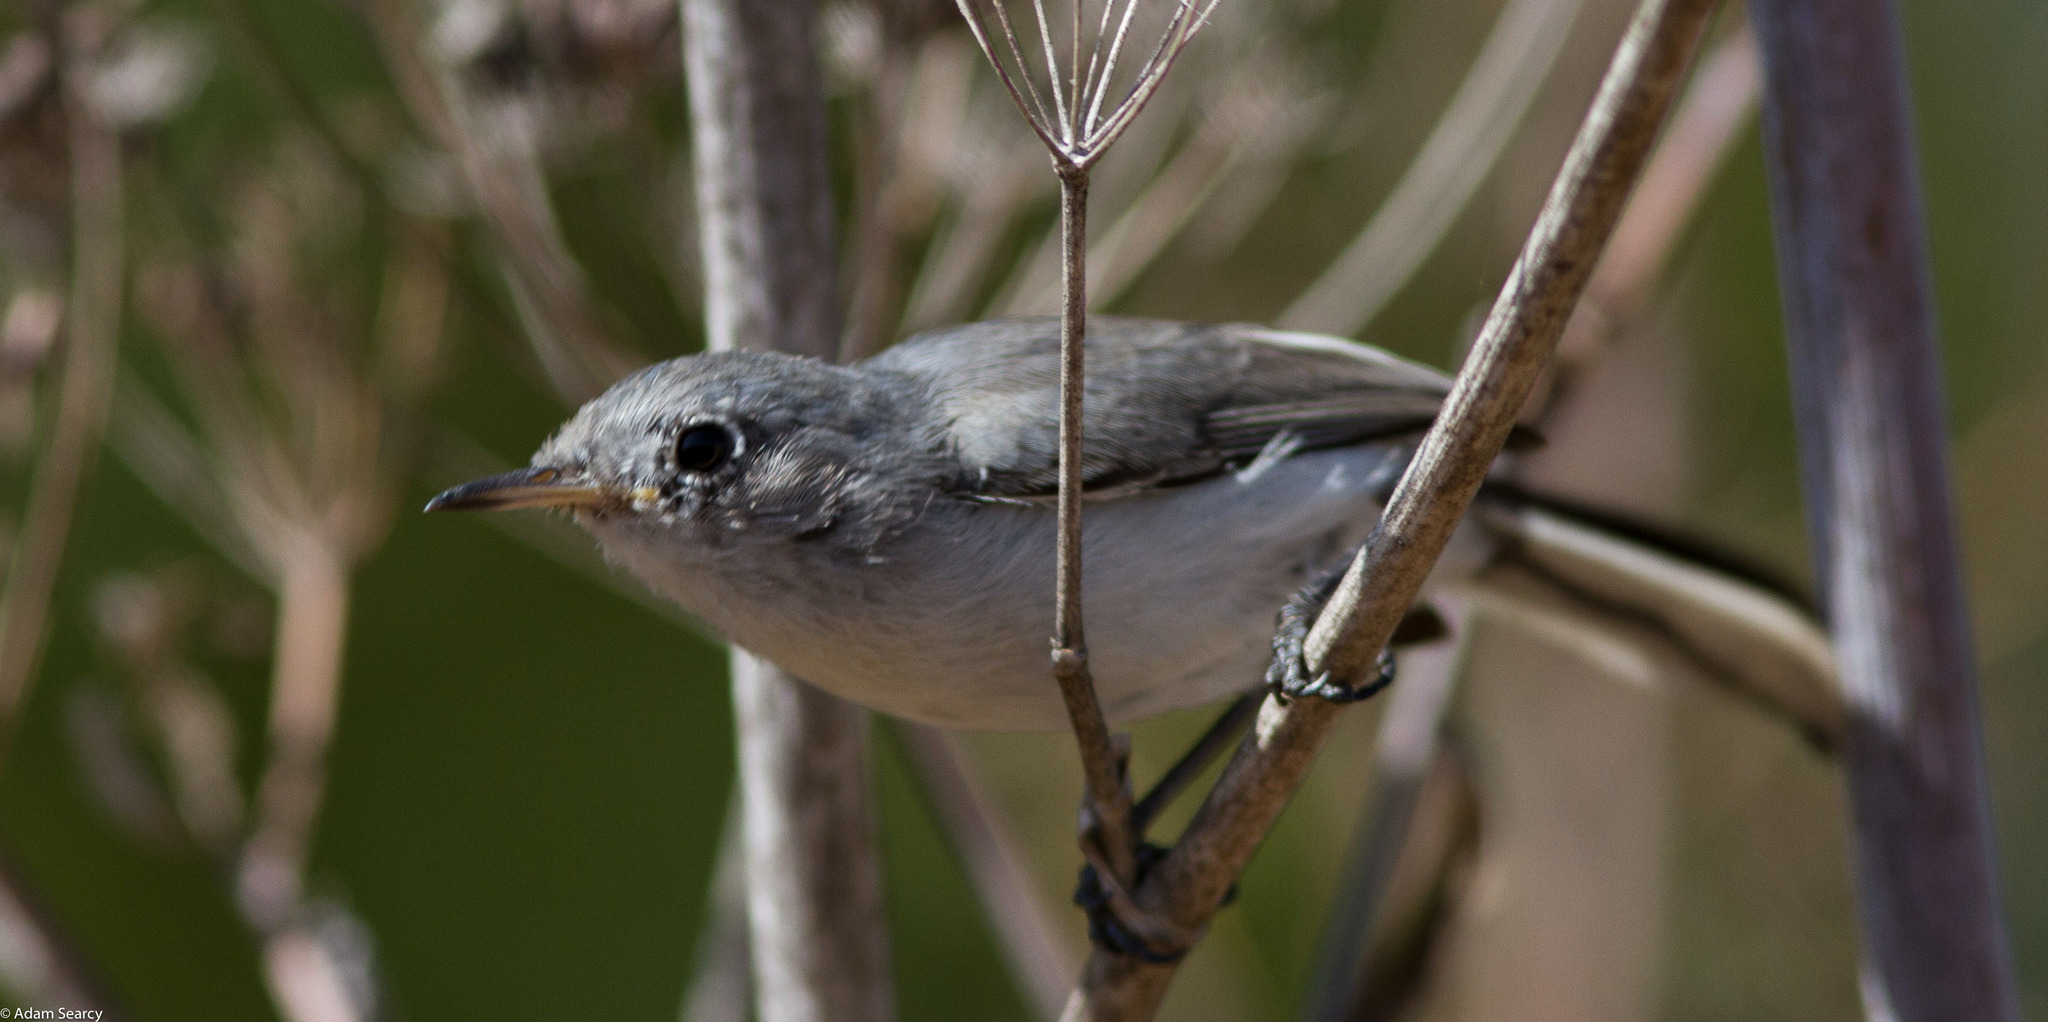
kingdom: Animalia
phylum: Chordata
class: Aves
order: Passeriformes
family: Polioptilidae
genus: Polioptila
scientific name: Polioptila caerulea
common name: Blue-gray gnatcatcher
